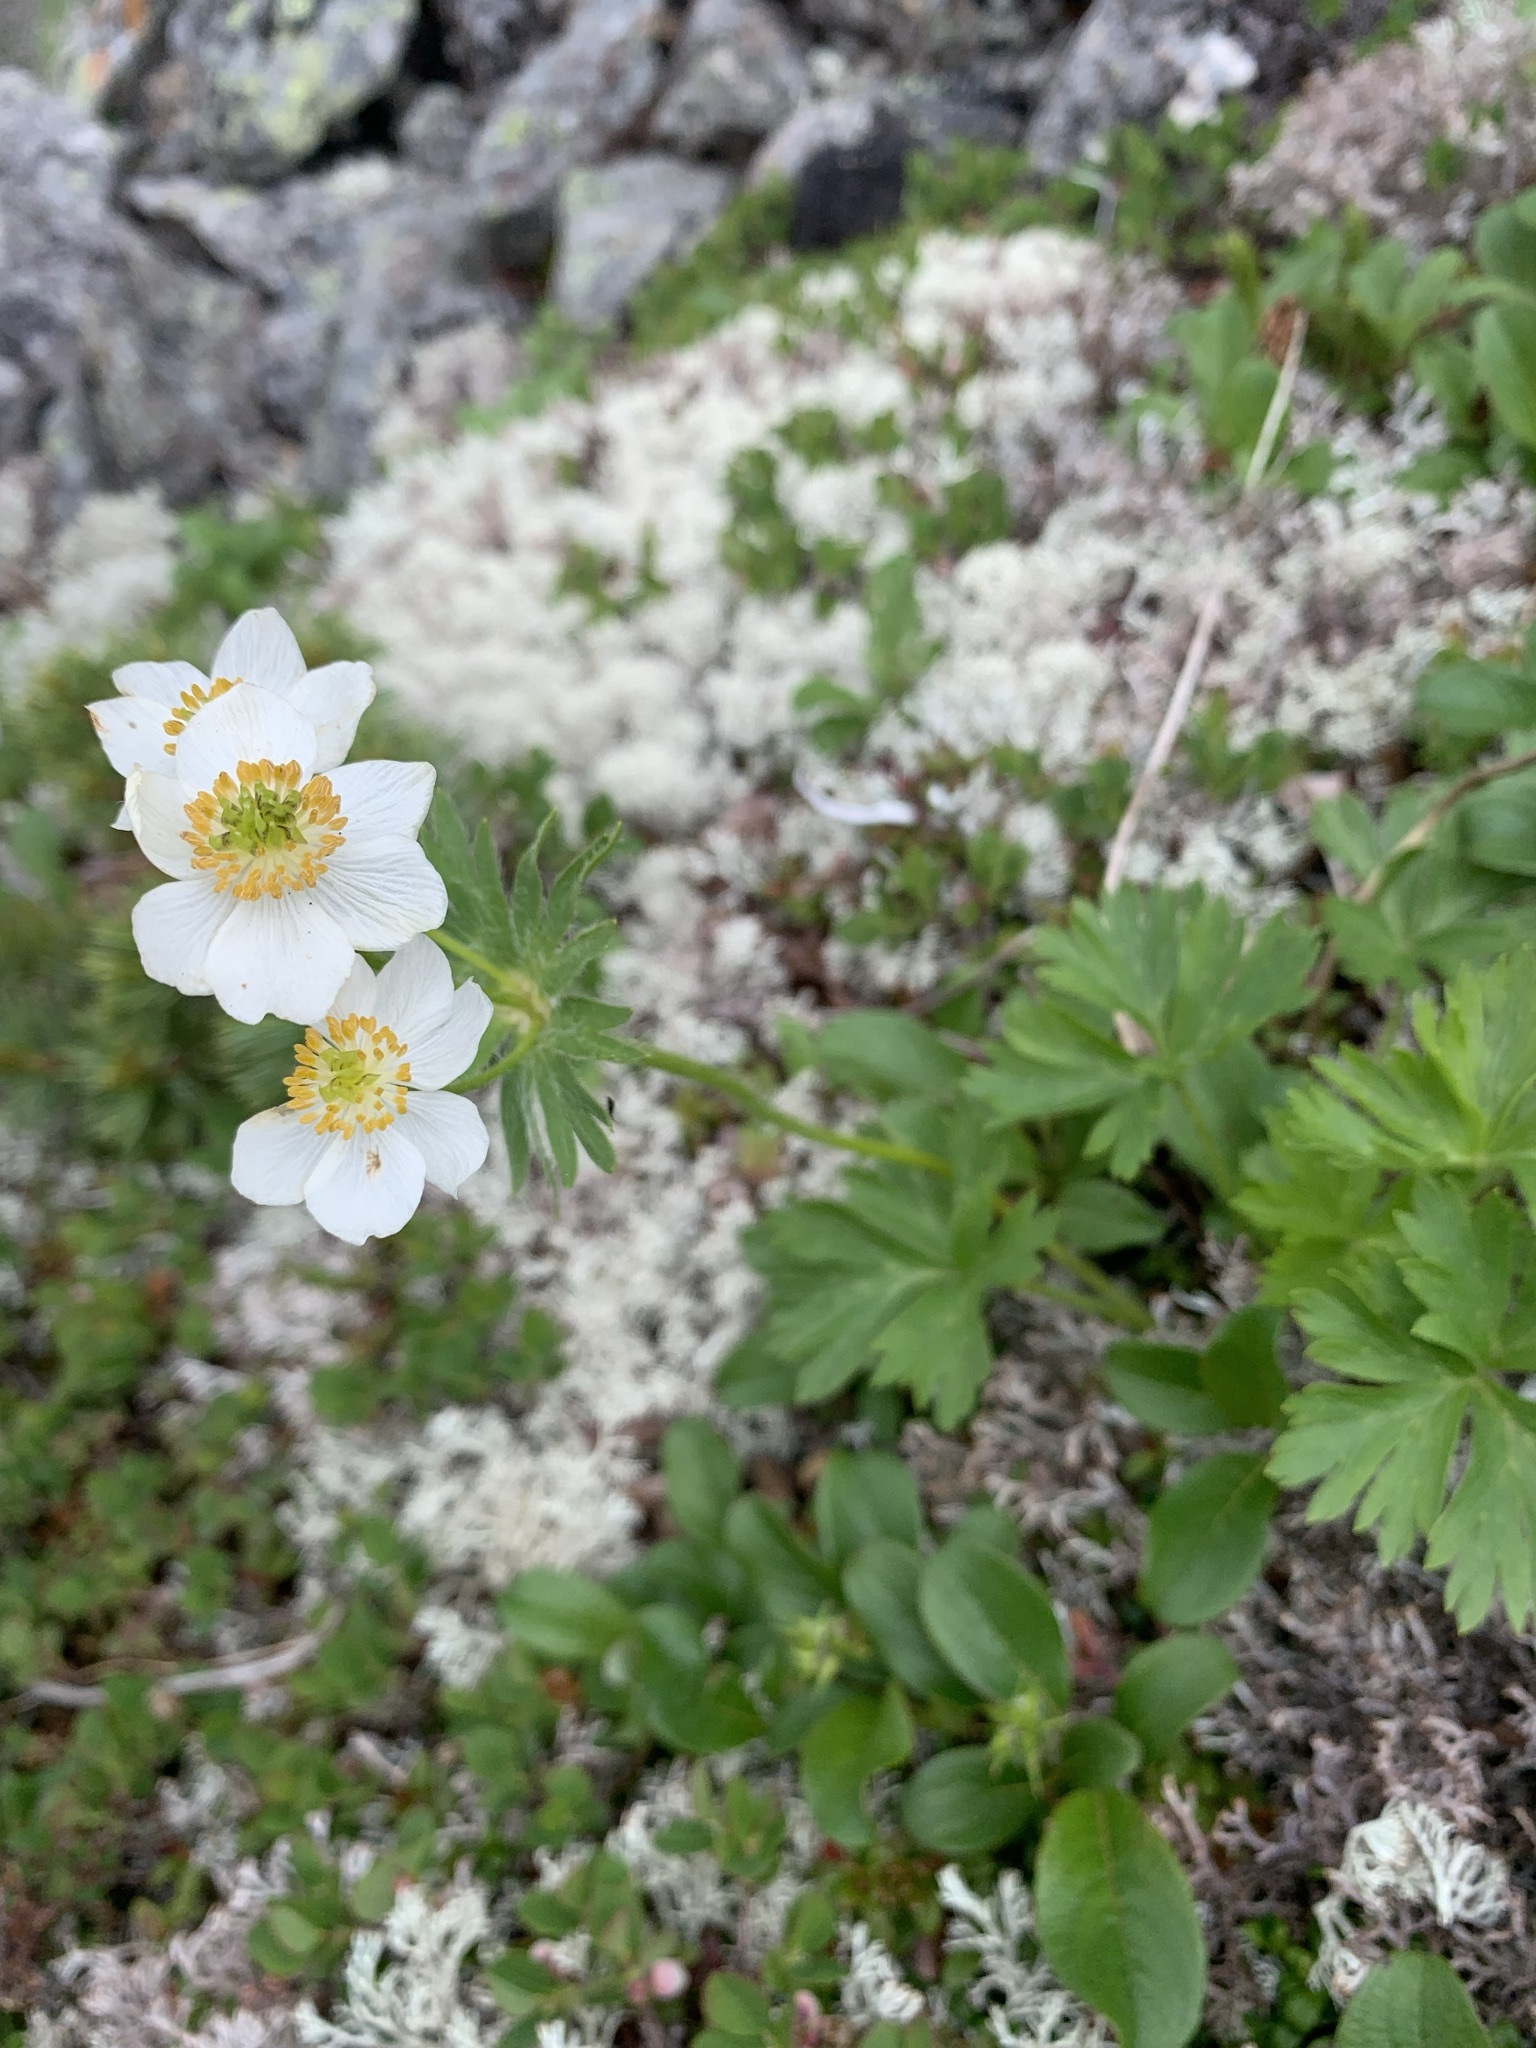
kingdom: Plantae
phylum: Tracheophyta
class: Magnoliopsida
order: Ranunculales
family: Ranunculaceae
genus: Anemonastrum
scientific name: Anemonastrum narcissiflorum
